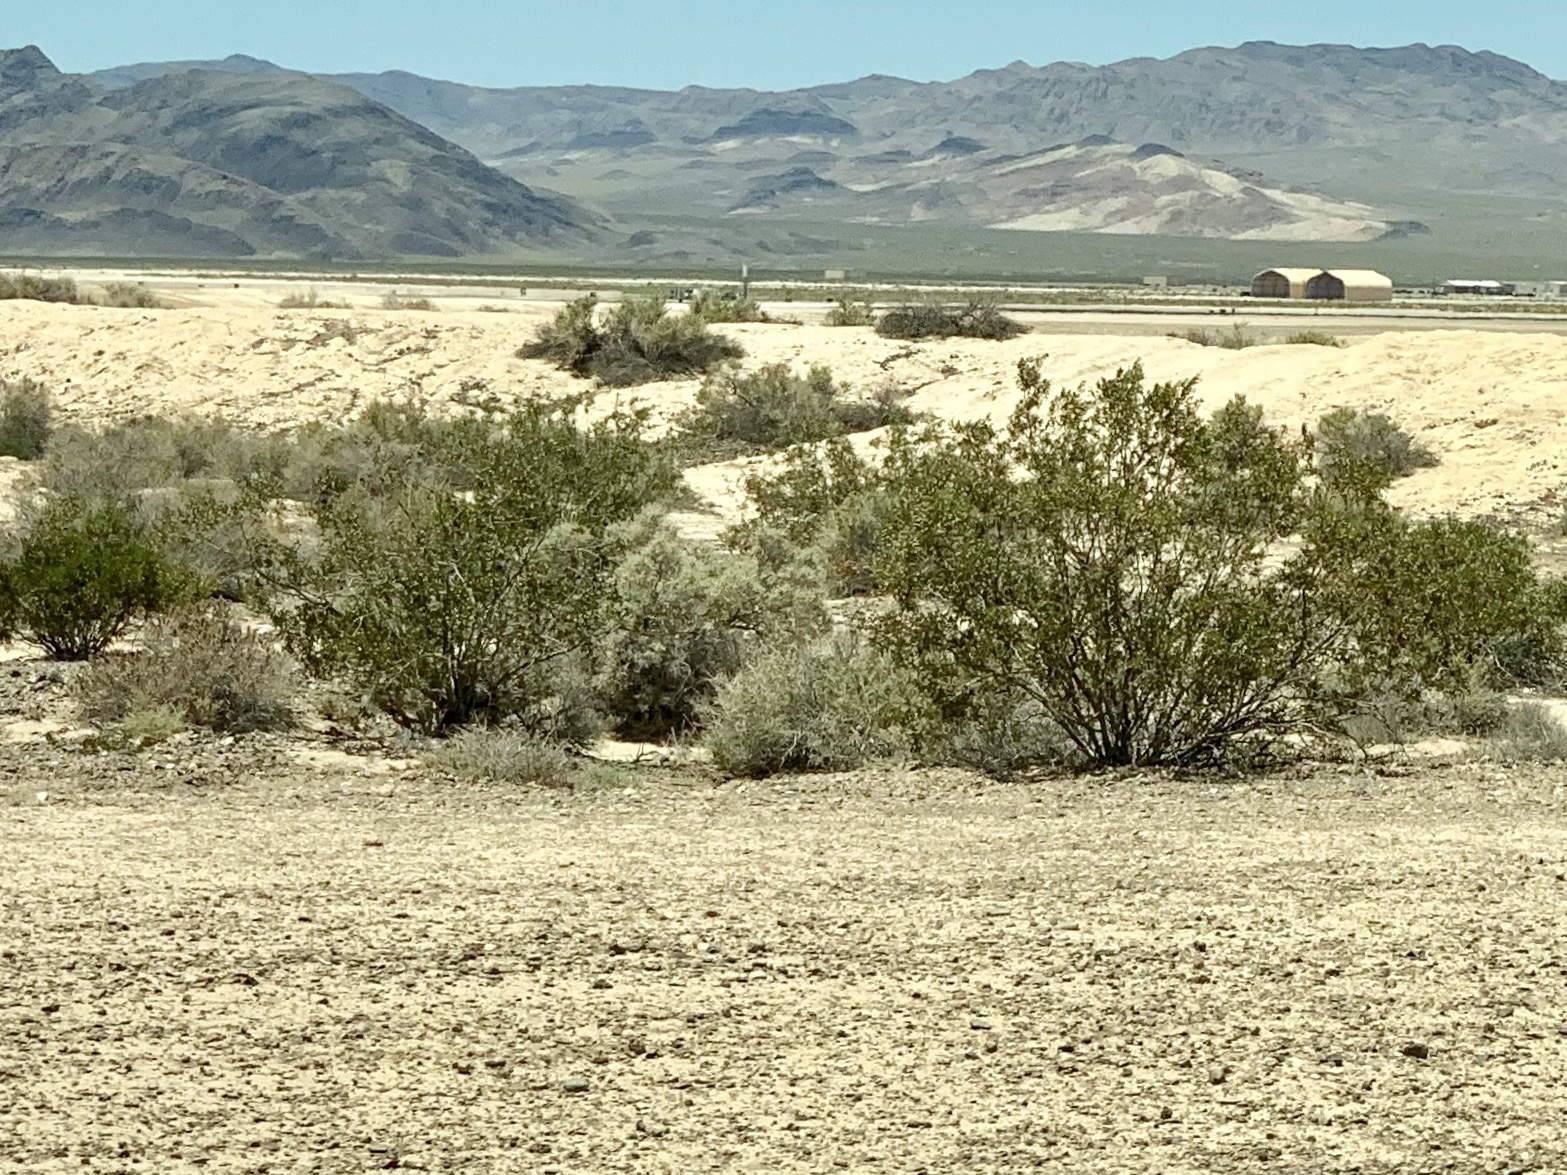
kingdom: Plantae
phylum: Tracheophyta
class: Magnoliopsida
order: Zygophyllales
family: Zygophyllaceae
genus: Larrea
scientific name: Larrea tridentata
